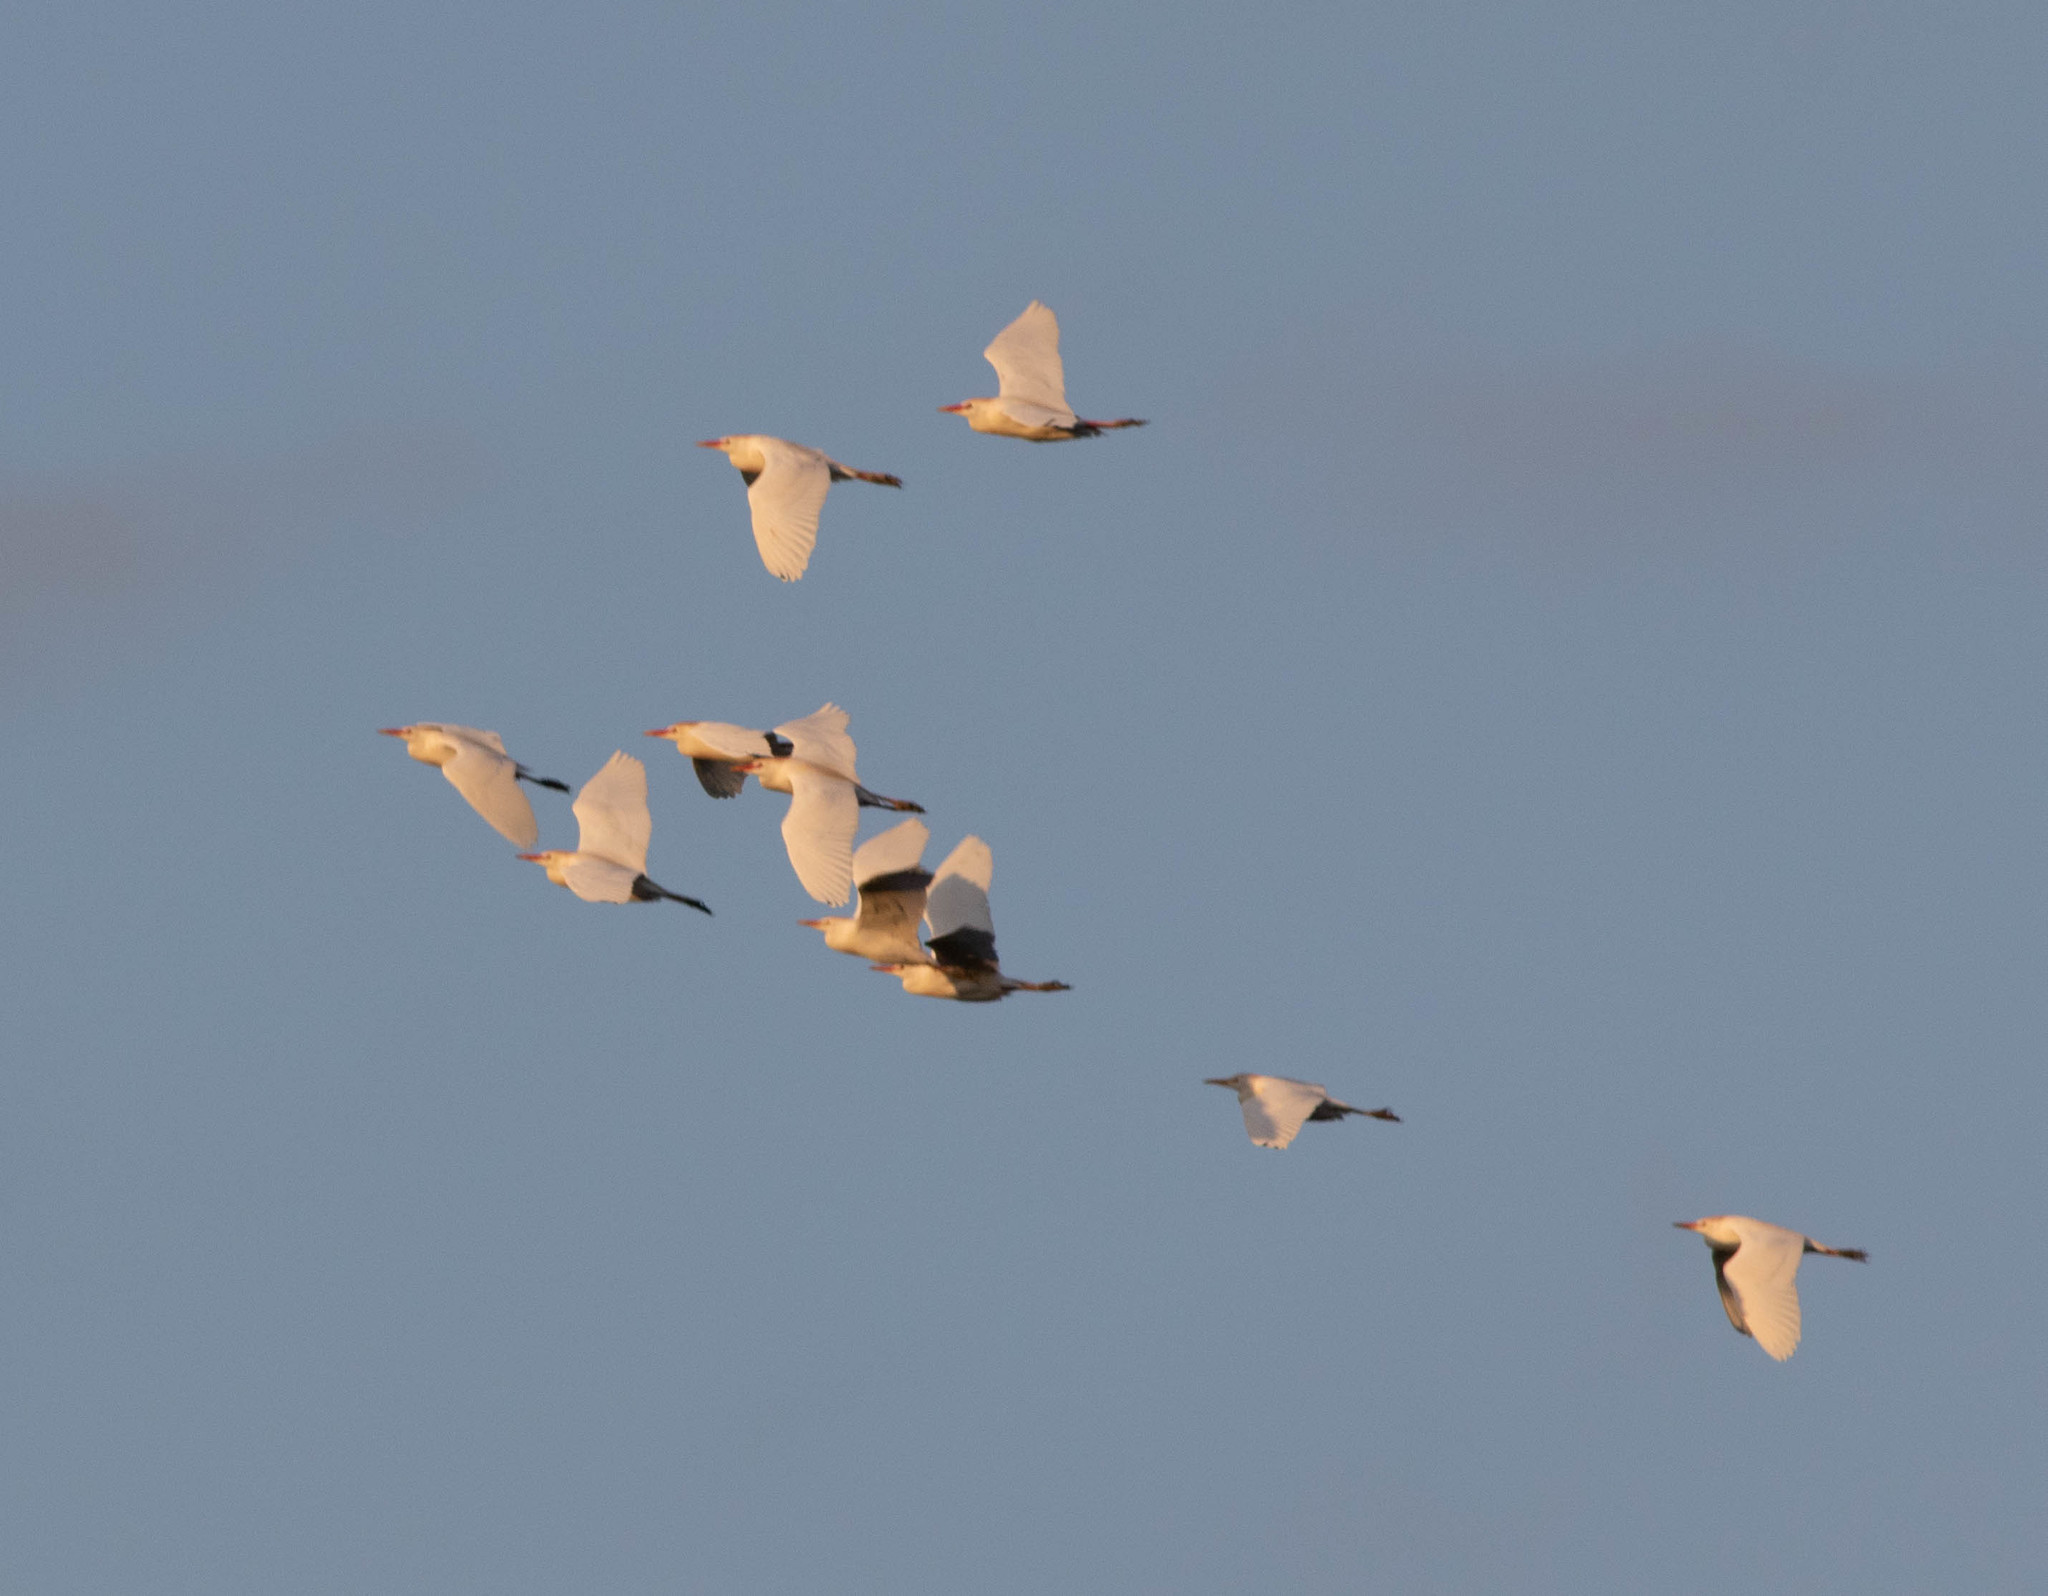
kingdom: Animalia
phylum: Chordata
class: Aves
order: Pelecaniformes
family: Ardeidae
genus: Bubulcus
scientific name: Bubulcus ibis
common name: Cattle egret
